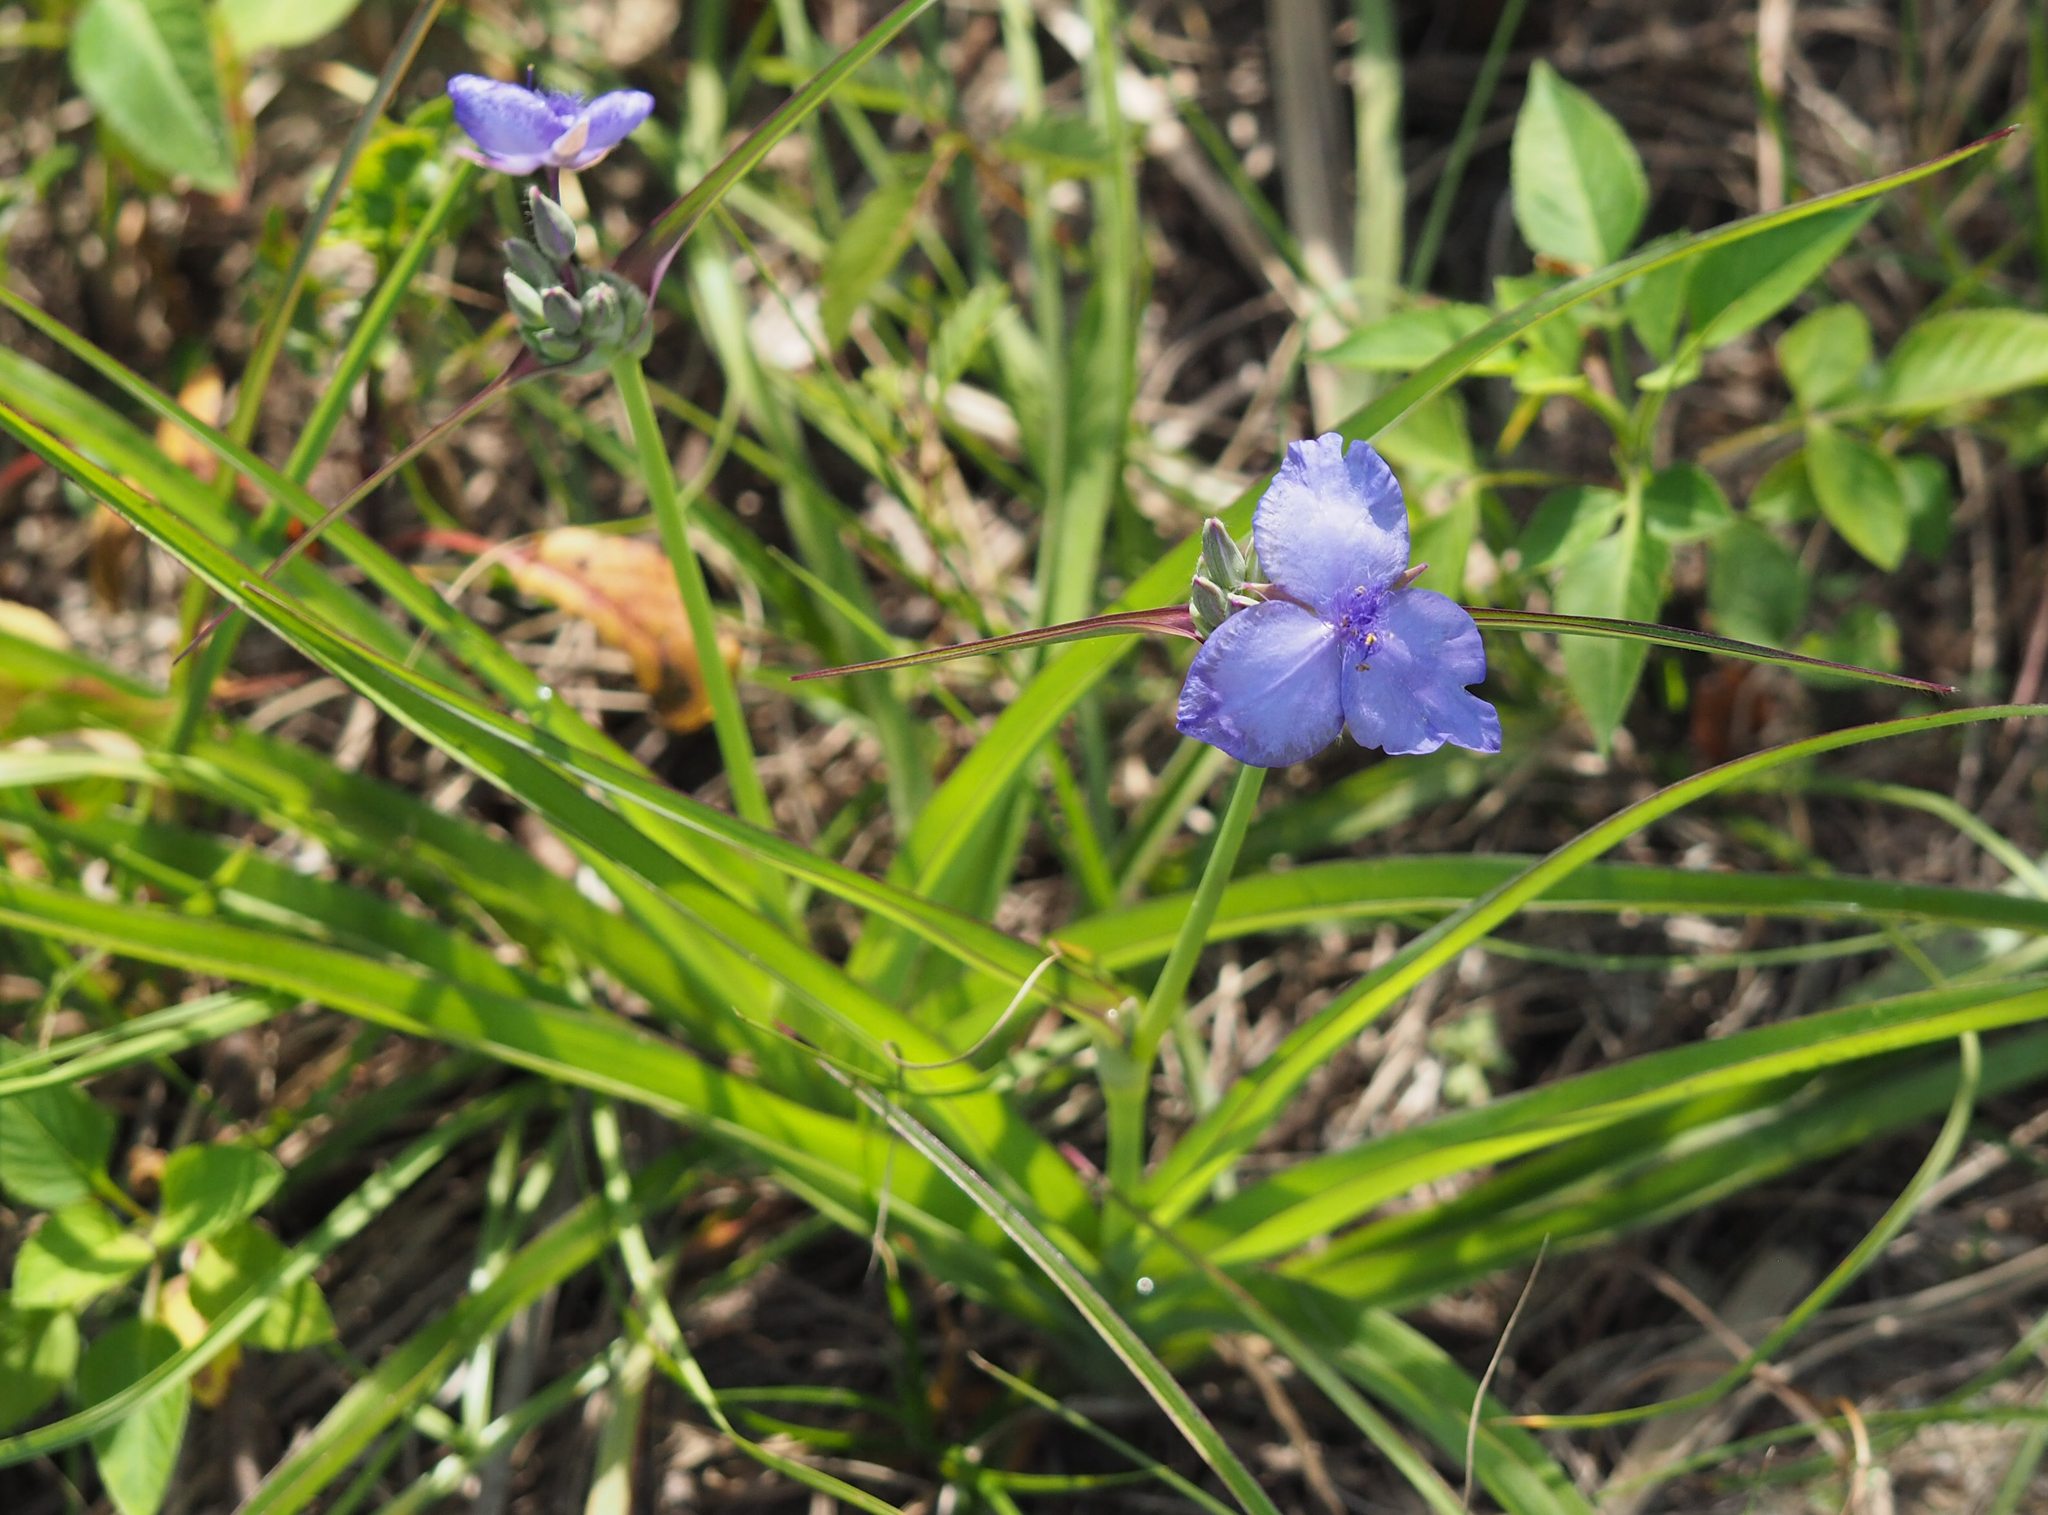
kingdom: Plantae
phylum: Tracheophyta
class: Liliopsida
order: Commelinales
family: Commelinaceae
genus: Tradescantia
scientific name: Tradescantia ohiensis
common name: Ohio spiderwort
